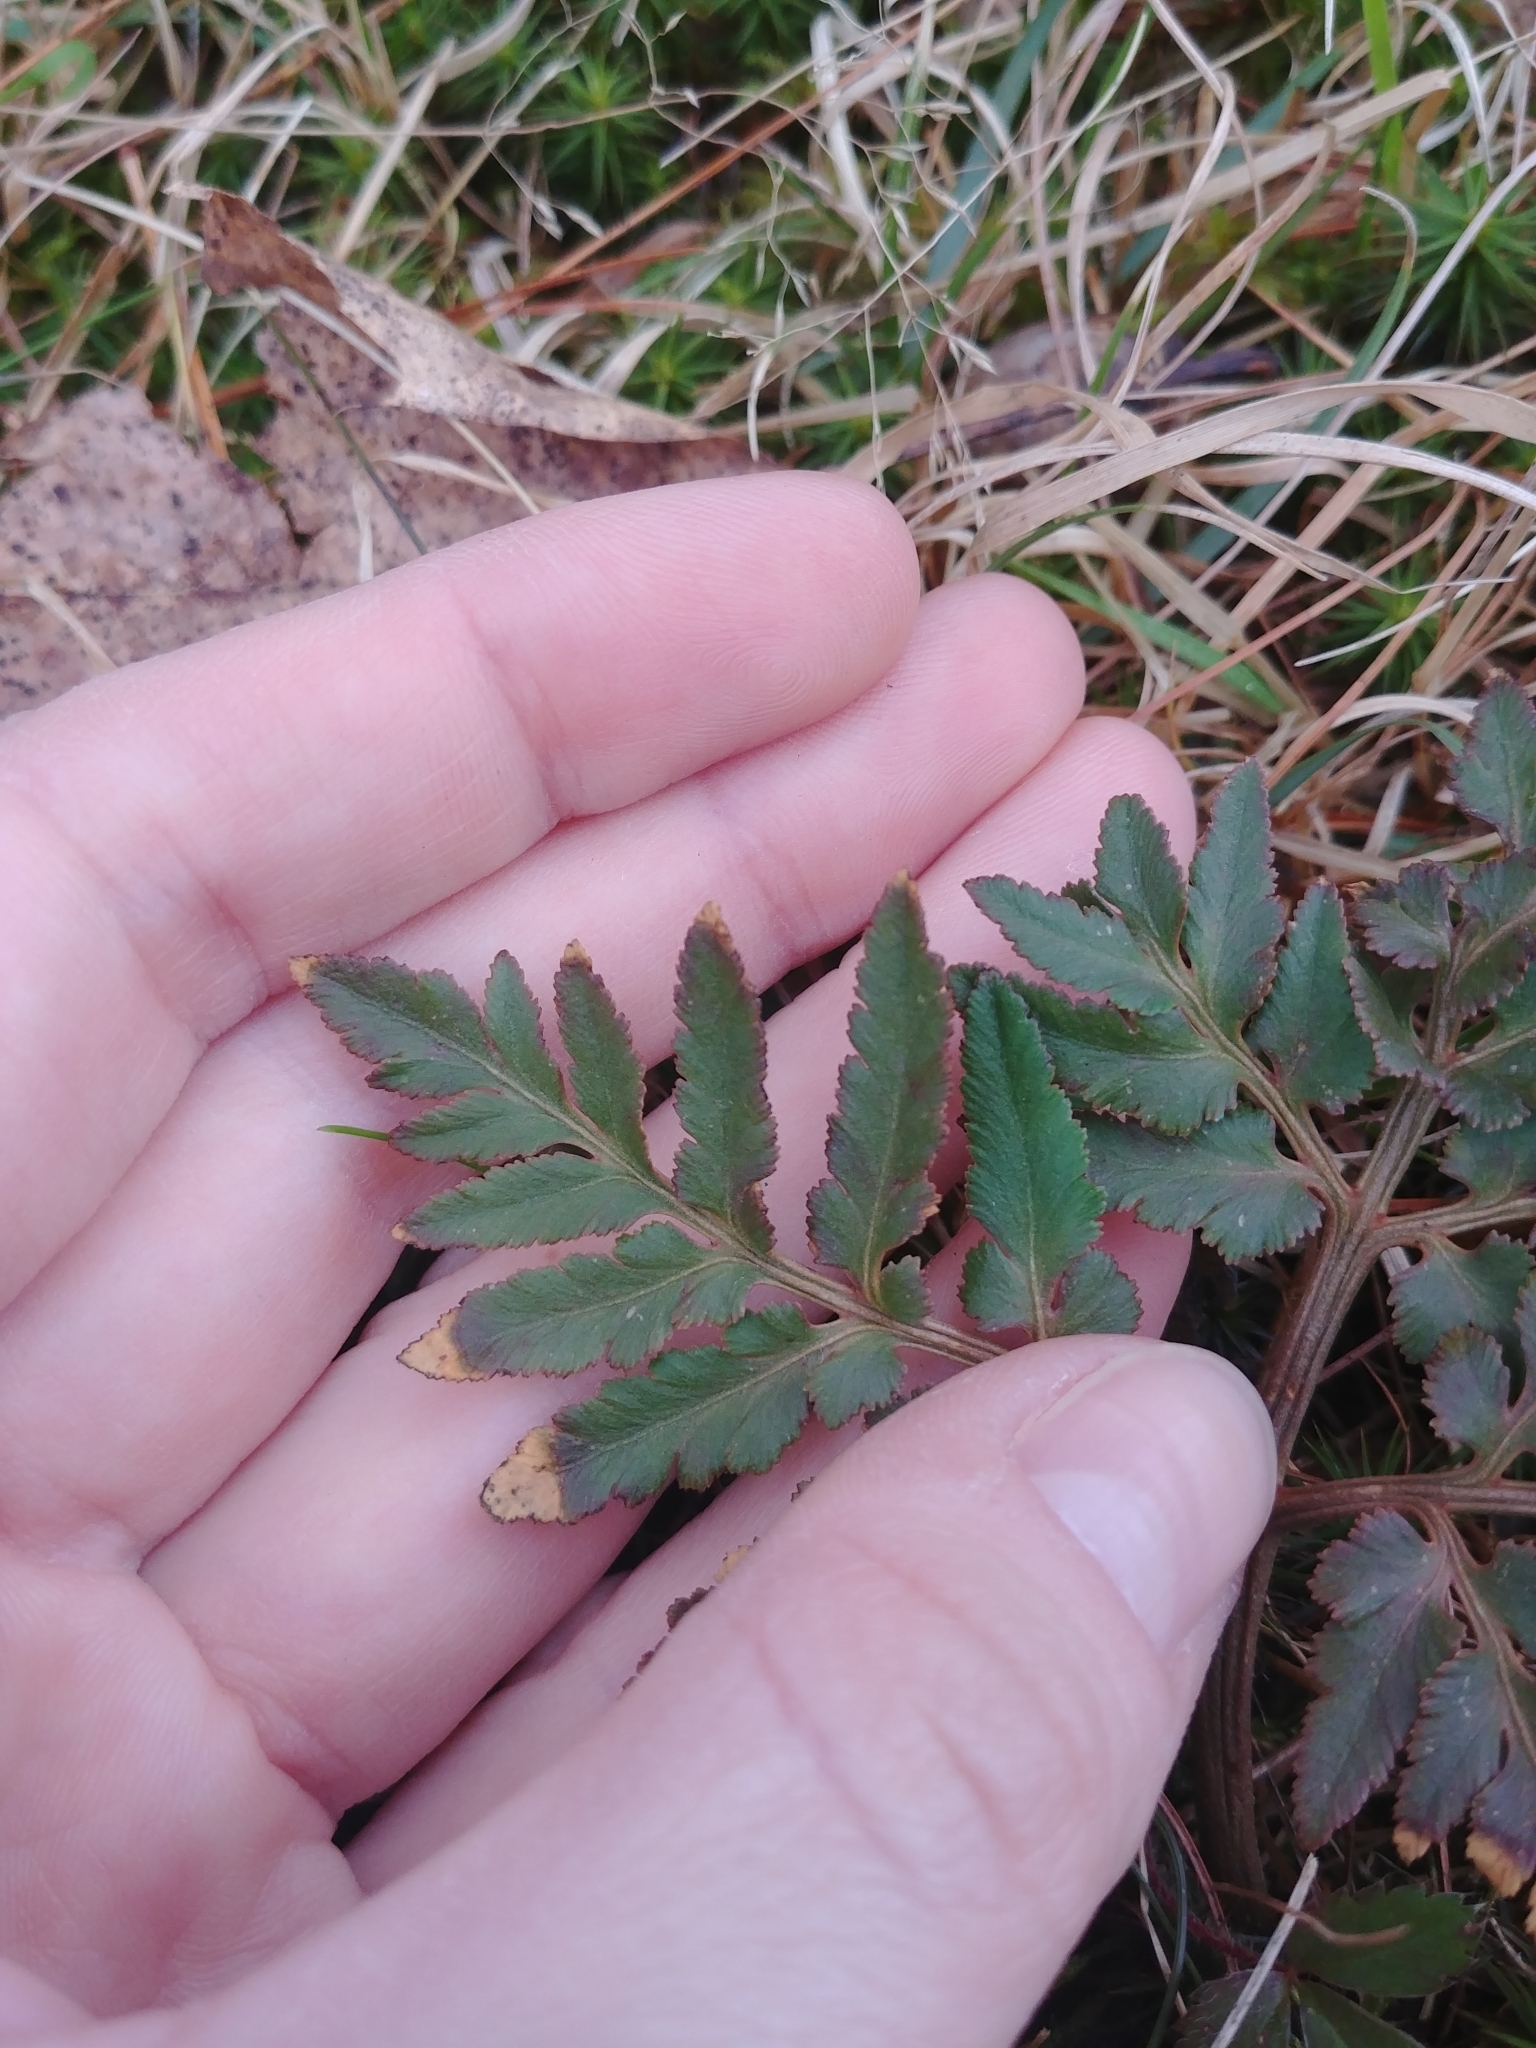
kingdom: Plantae
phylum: Tracheophyta
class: Polypodiopsida
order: Ophioglossales
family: Ophioglossaceae
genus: Sceptridium
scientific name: Sceptridium dissectum
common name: Cut-leaved grapefern
